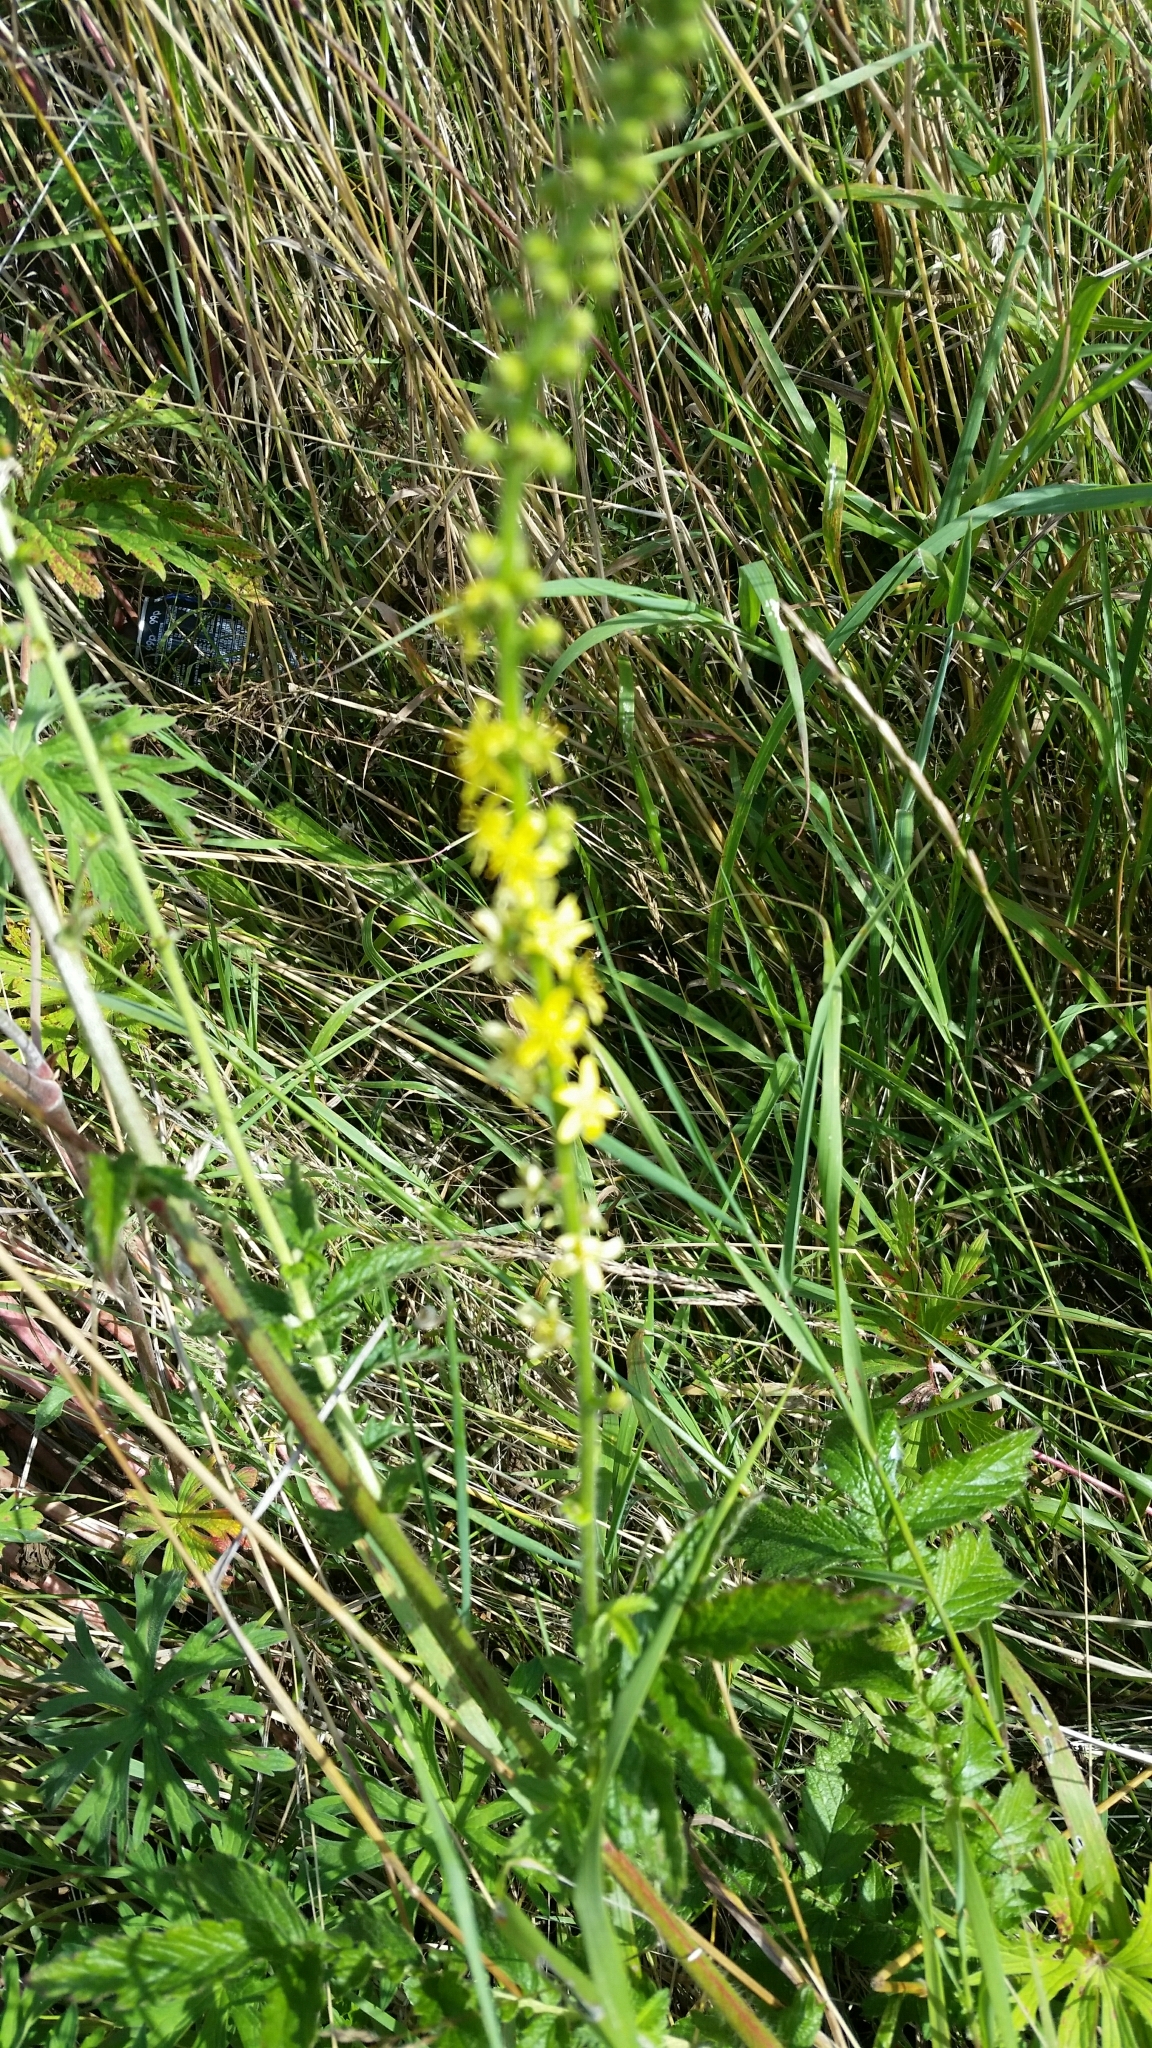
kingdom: Plantae
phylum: Tracheophyta
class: Magnoliopsida
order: Rosales
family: Rosaceae
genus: Agrimonia
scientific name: Agrimonia eupatoria
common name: Agrimony
